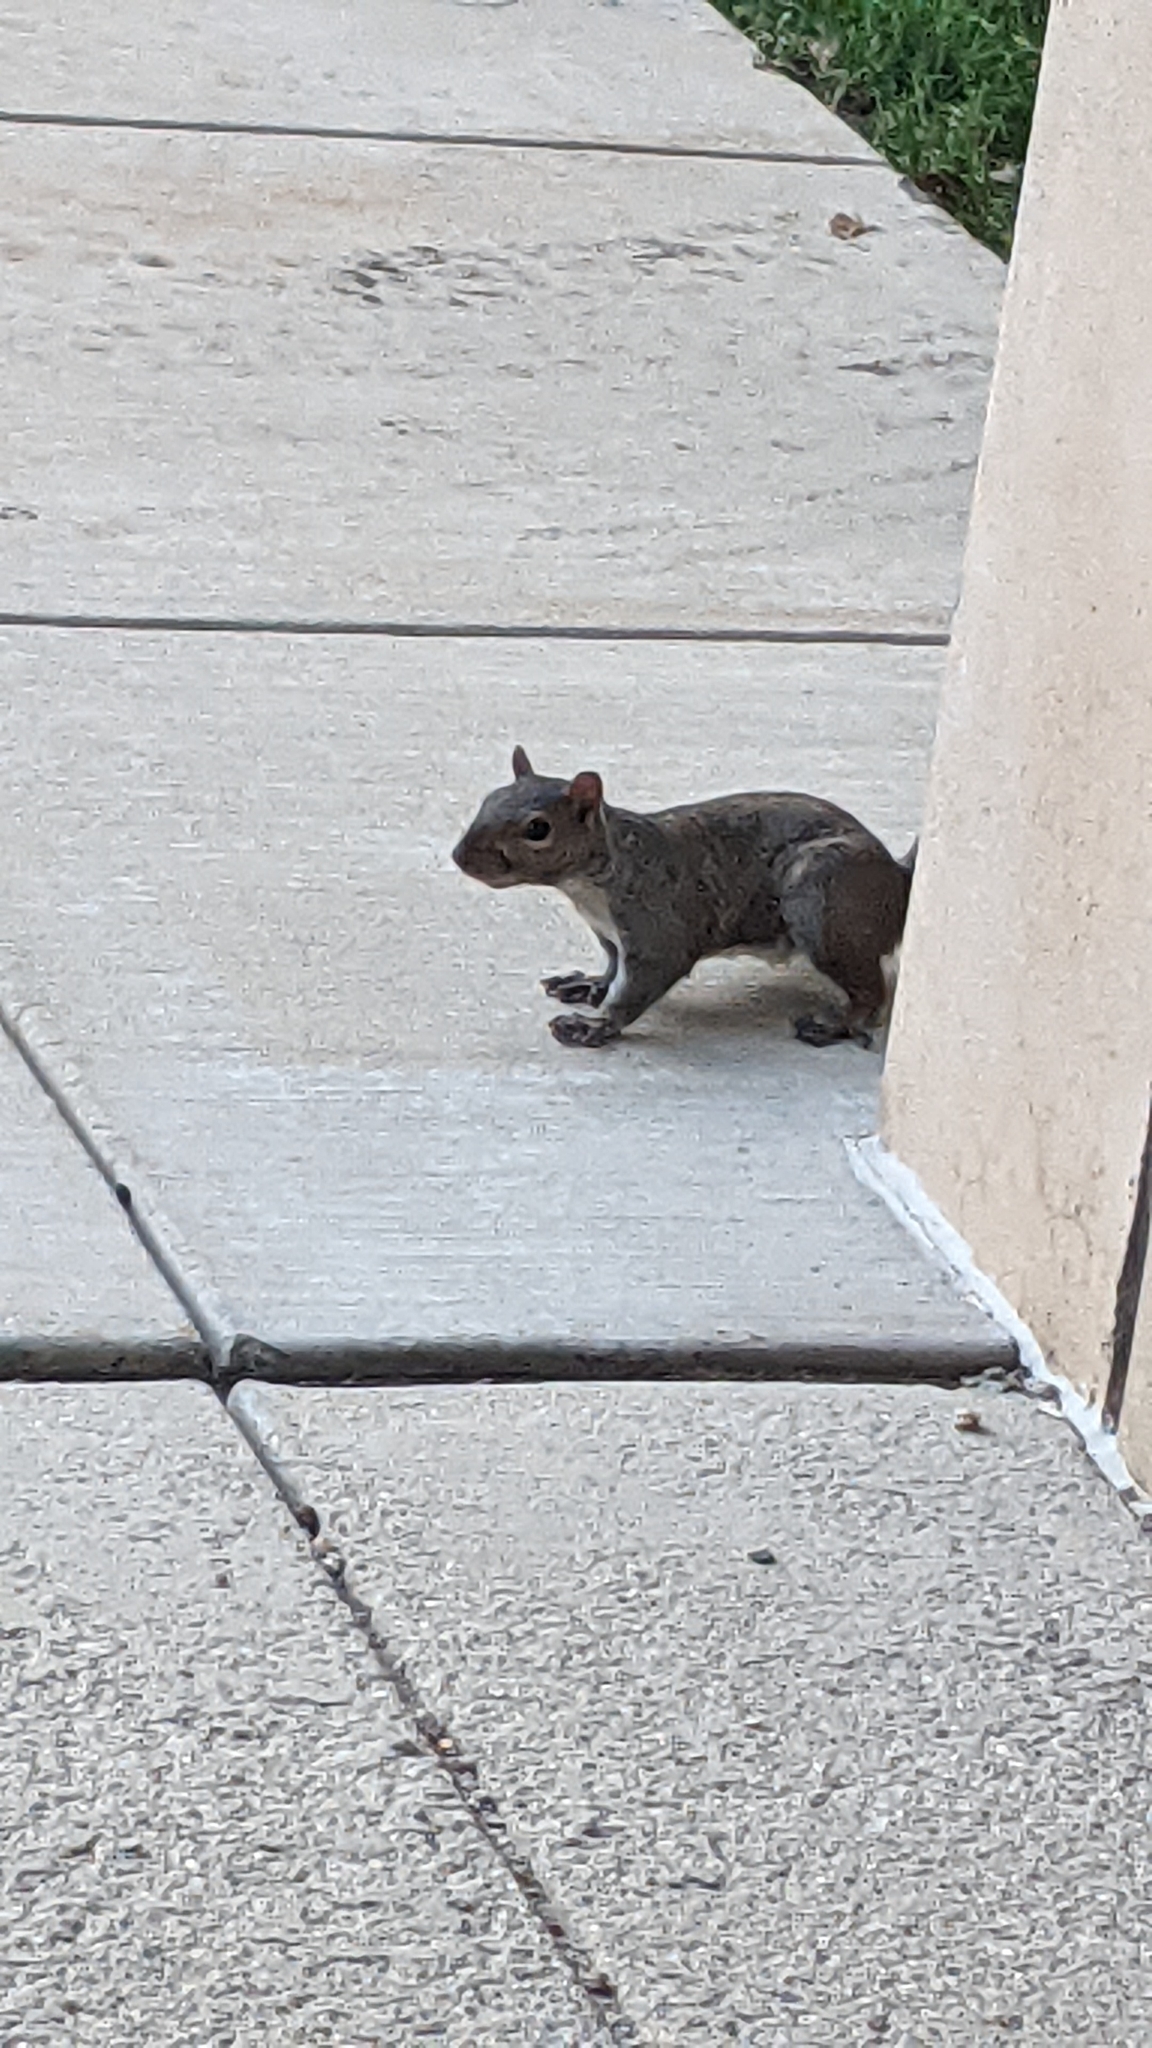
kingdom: Animalia
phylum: Chordata
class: Mammalia
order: Rodentia
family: Sciuridae
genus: Sciurus
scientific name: Sciurus carolinensis
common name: Eastern gray squirrel
